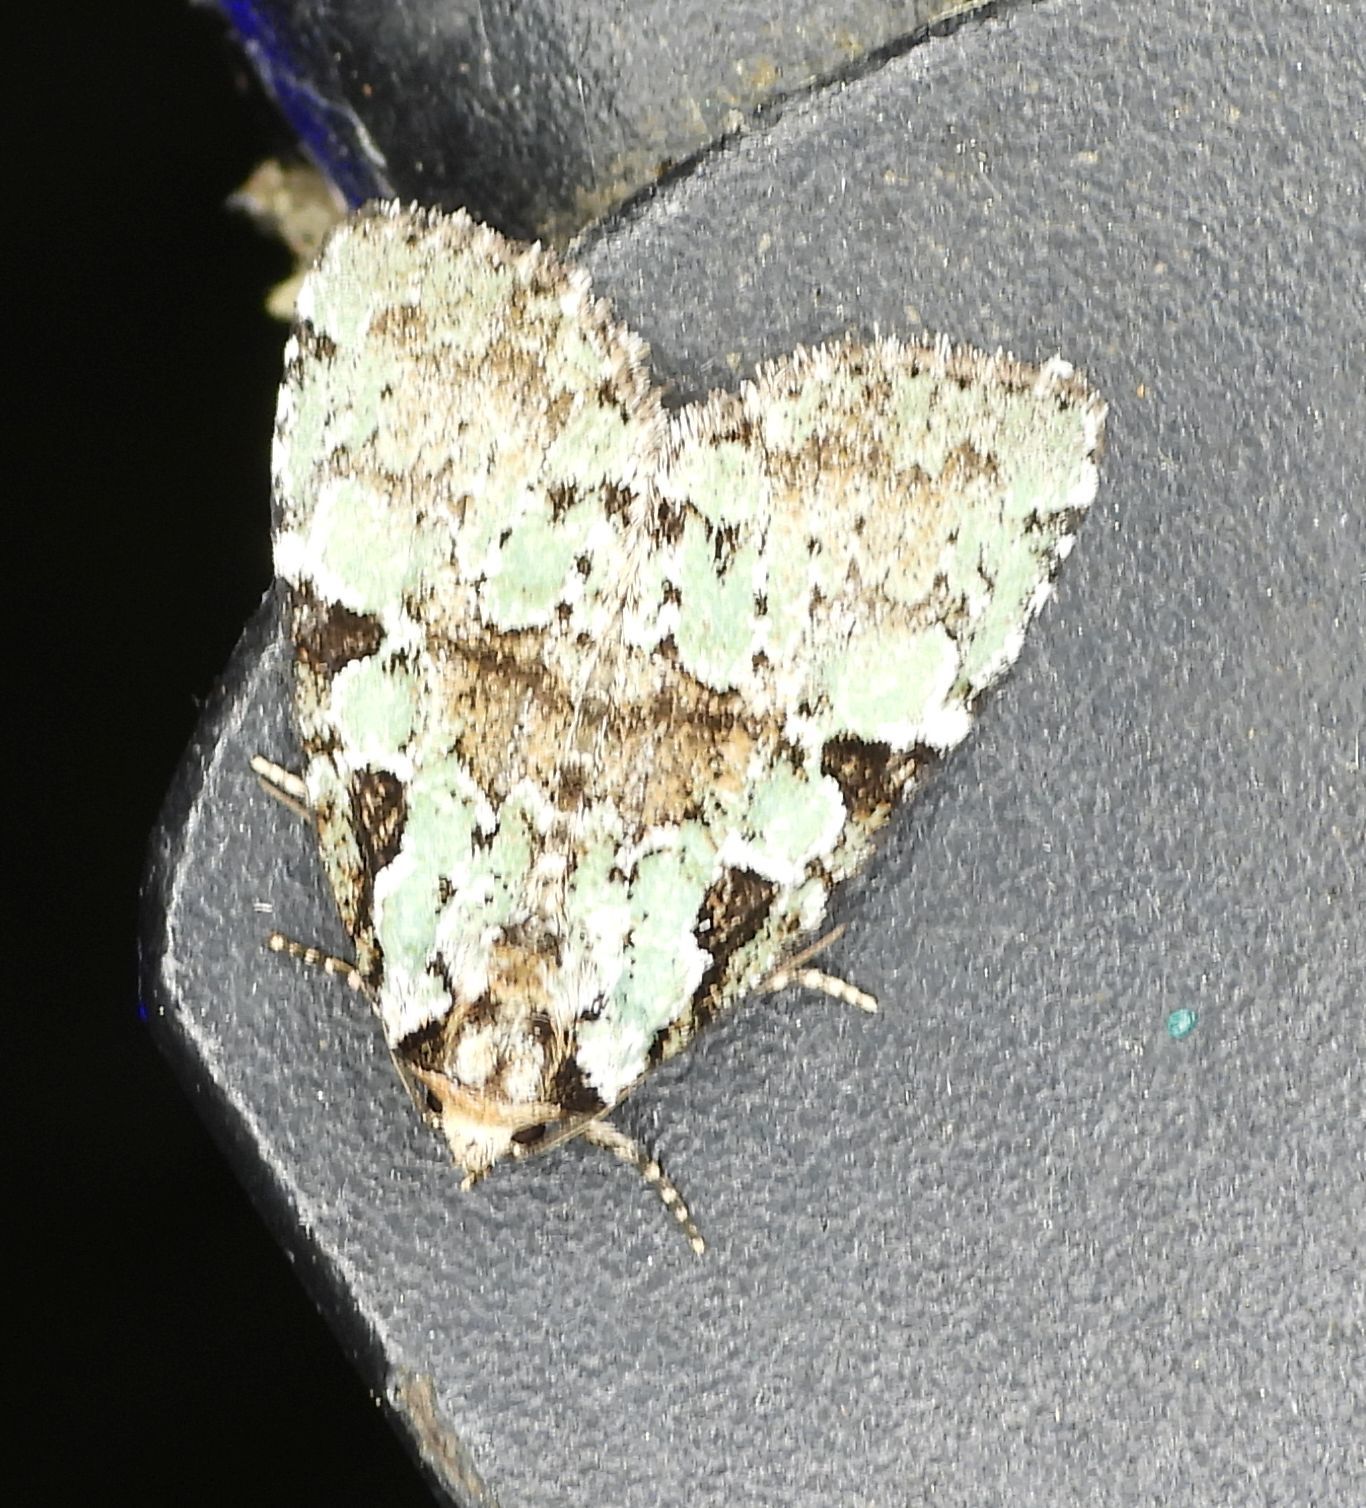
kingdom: Animalia
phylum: Arthropoda
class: Insecta
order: Lepidoptera
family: Noctuidae
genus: Leuconycta
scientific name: Leuconycta lepidula
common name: Marbled-green leuconycta moth
